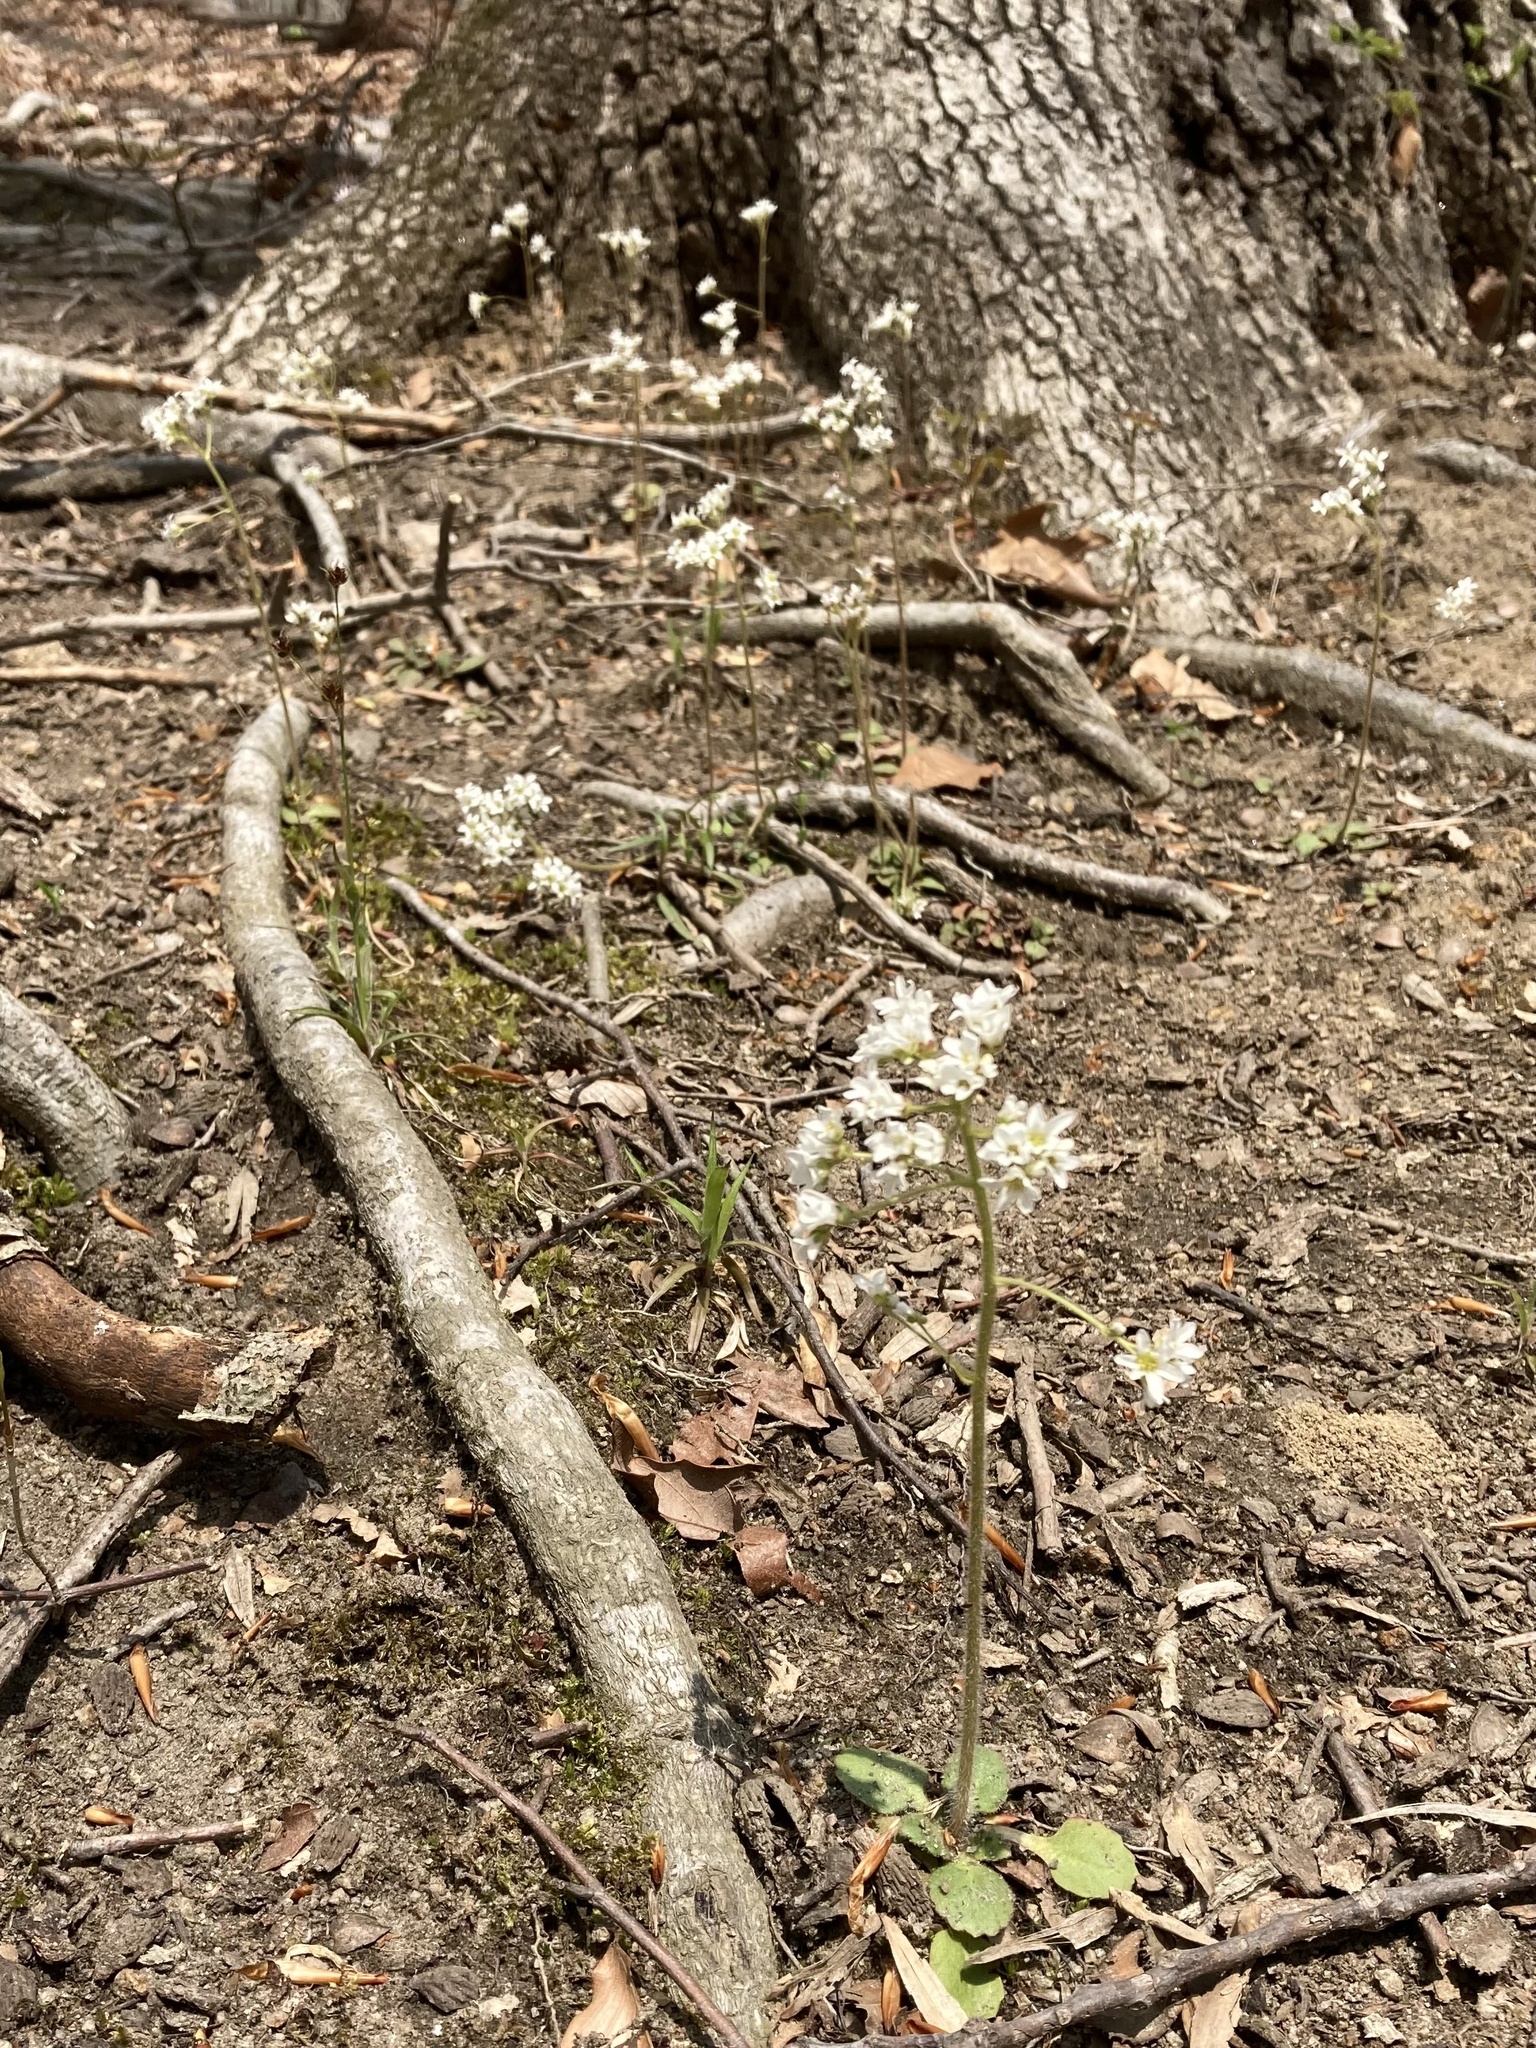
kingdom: Plantae
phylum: Tracheophyta
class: Magnoliopsida
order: Saxifragales
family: Saxifragaceae
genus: Micranthes
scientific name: Micranthes virginiensis
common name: Early saxifrage
